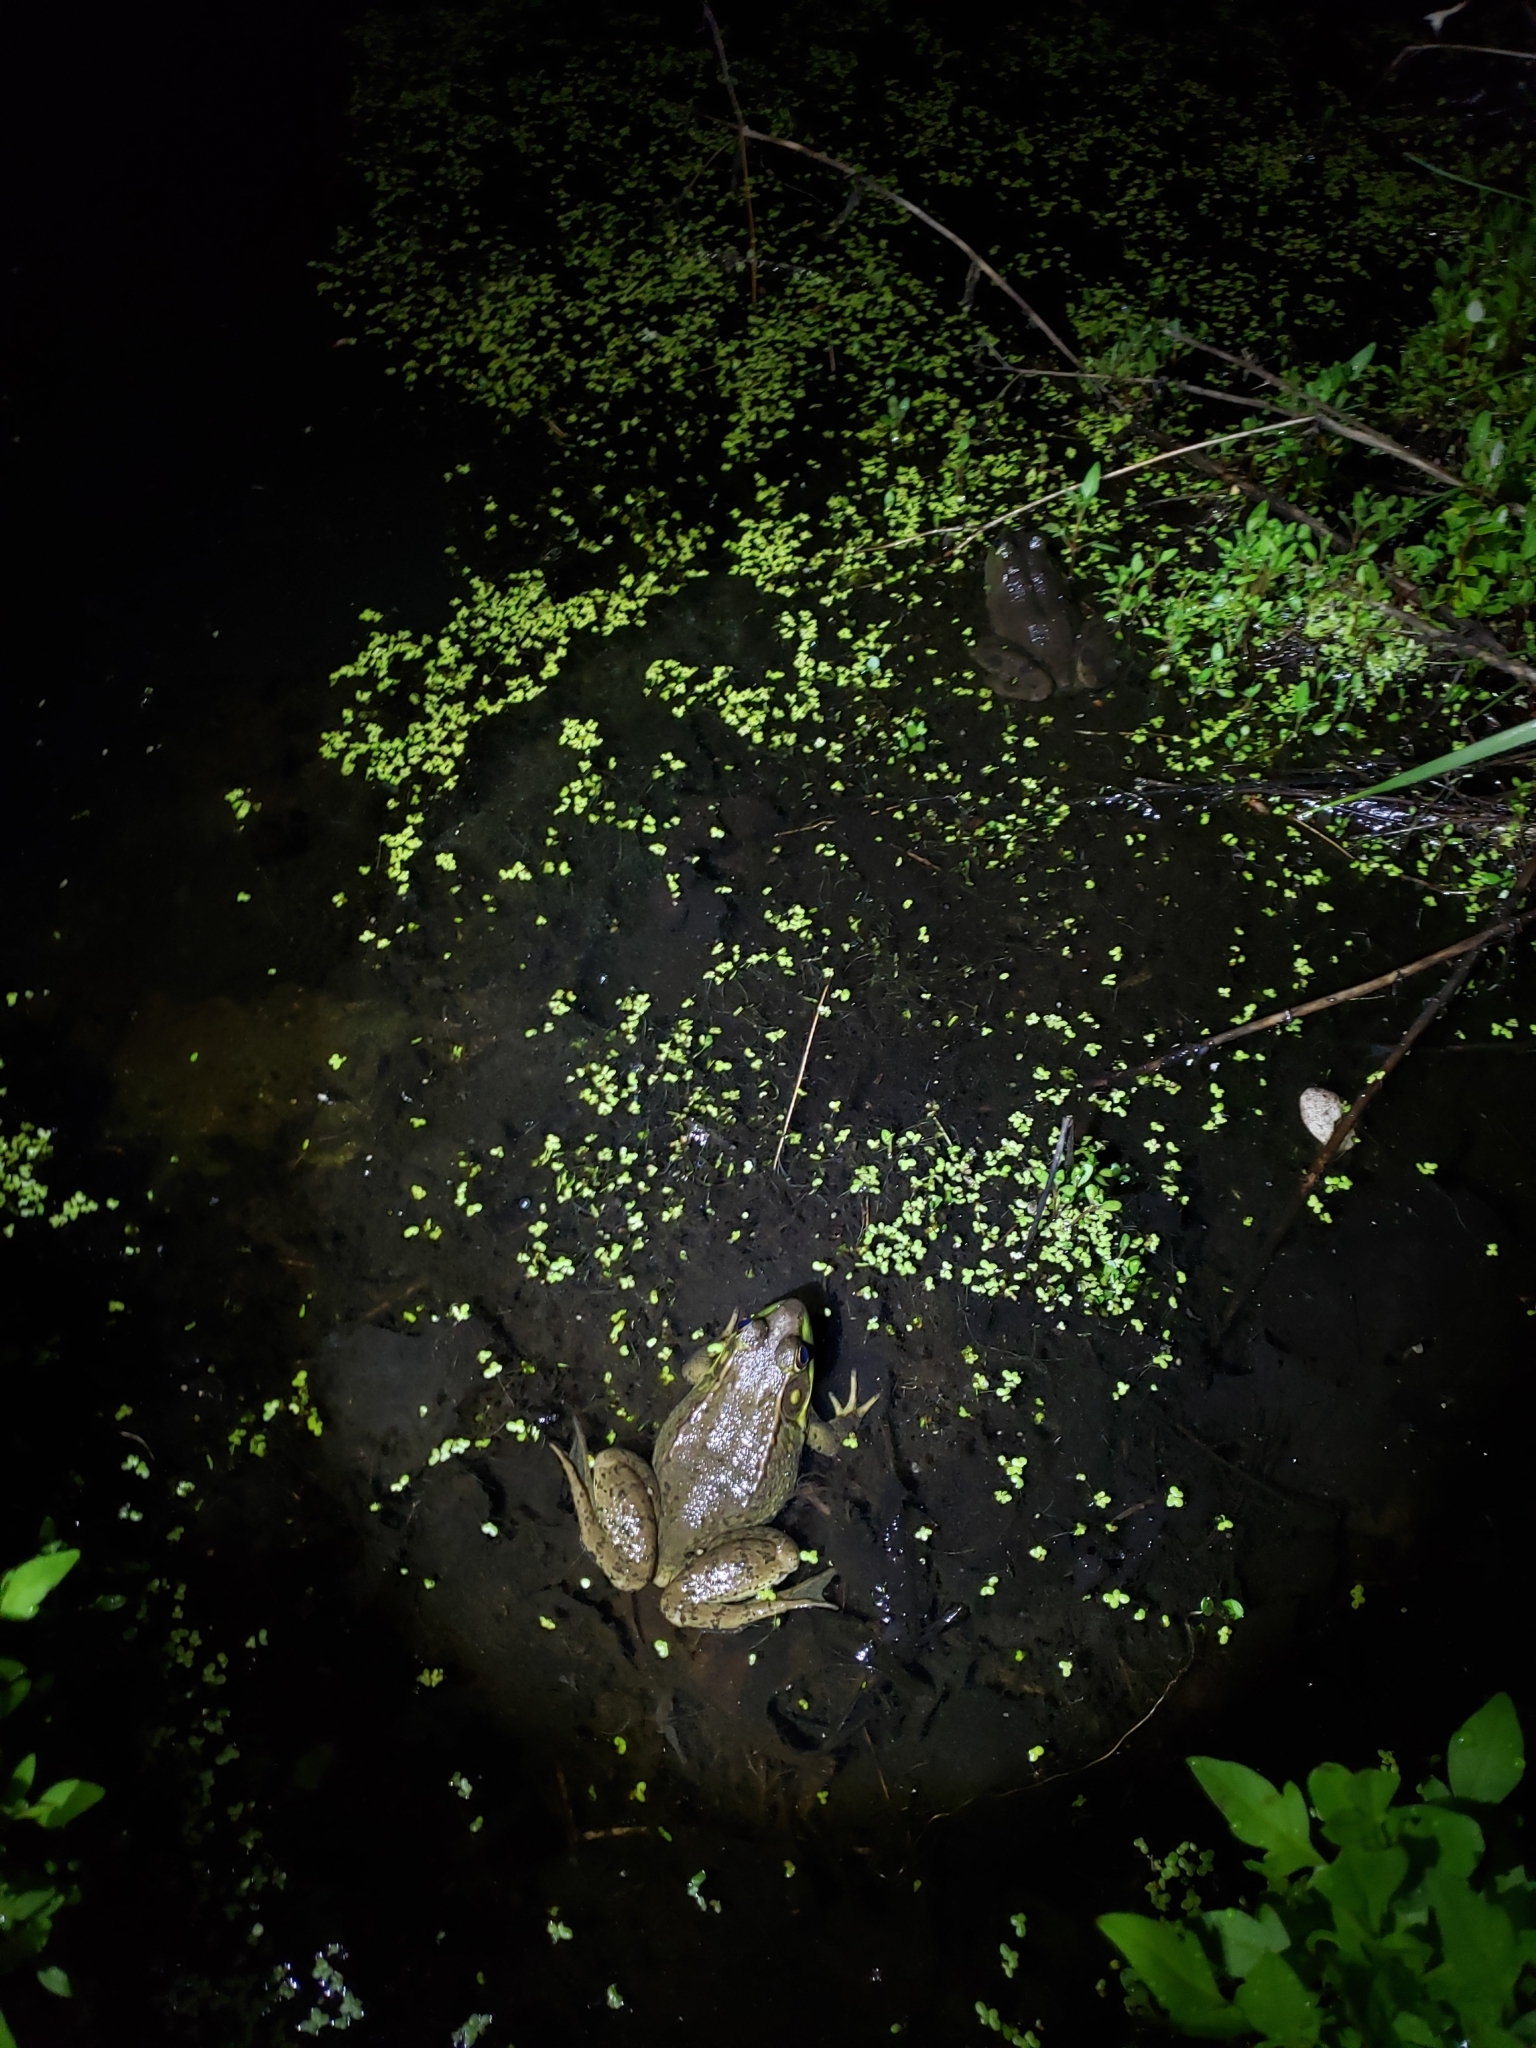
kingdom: Animalia
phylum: Chordata
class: Amphibia
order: Anura
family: Ranidae
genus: Lithobates
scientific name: Lithobates clamitans
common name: Green frog
